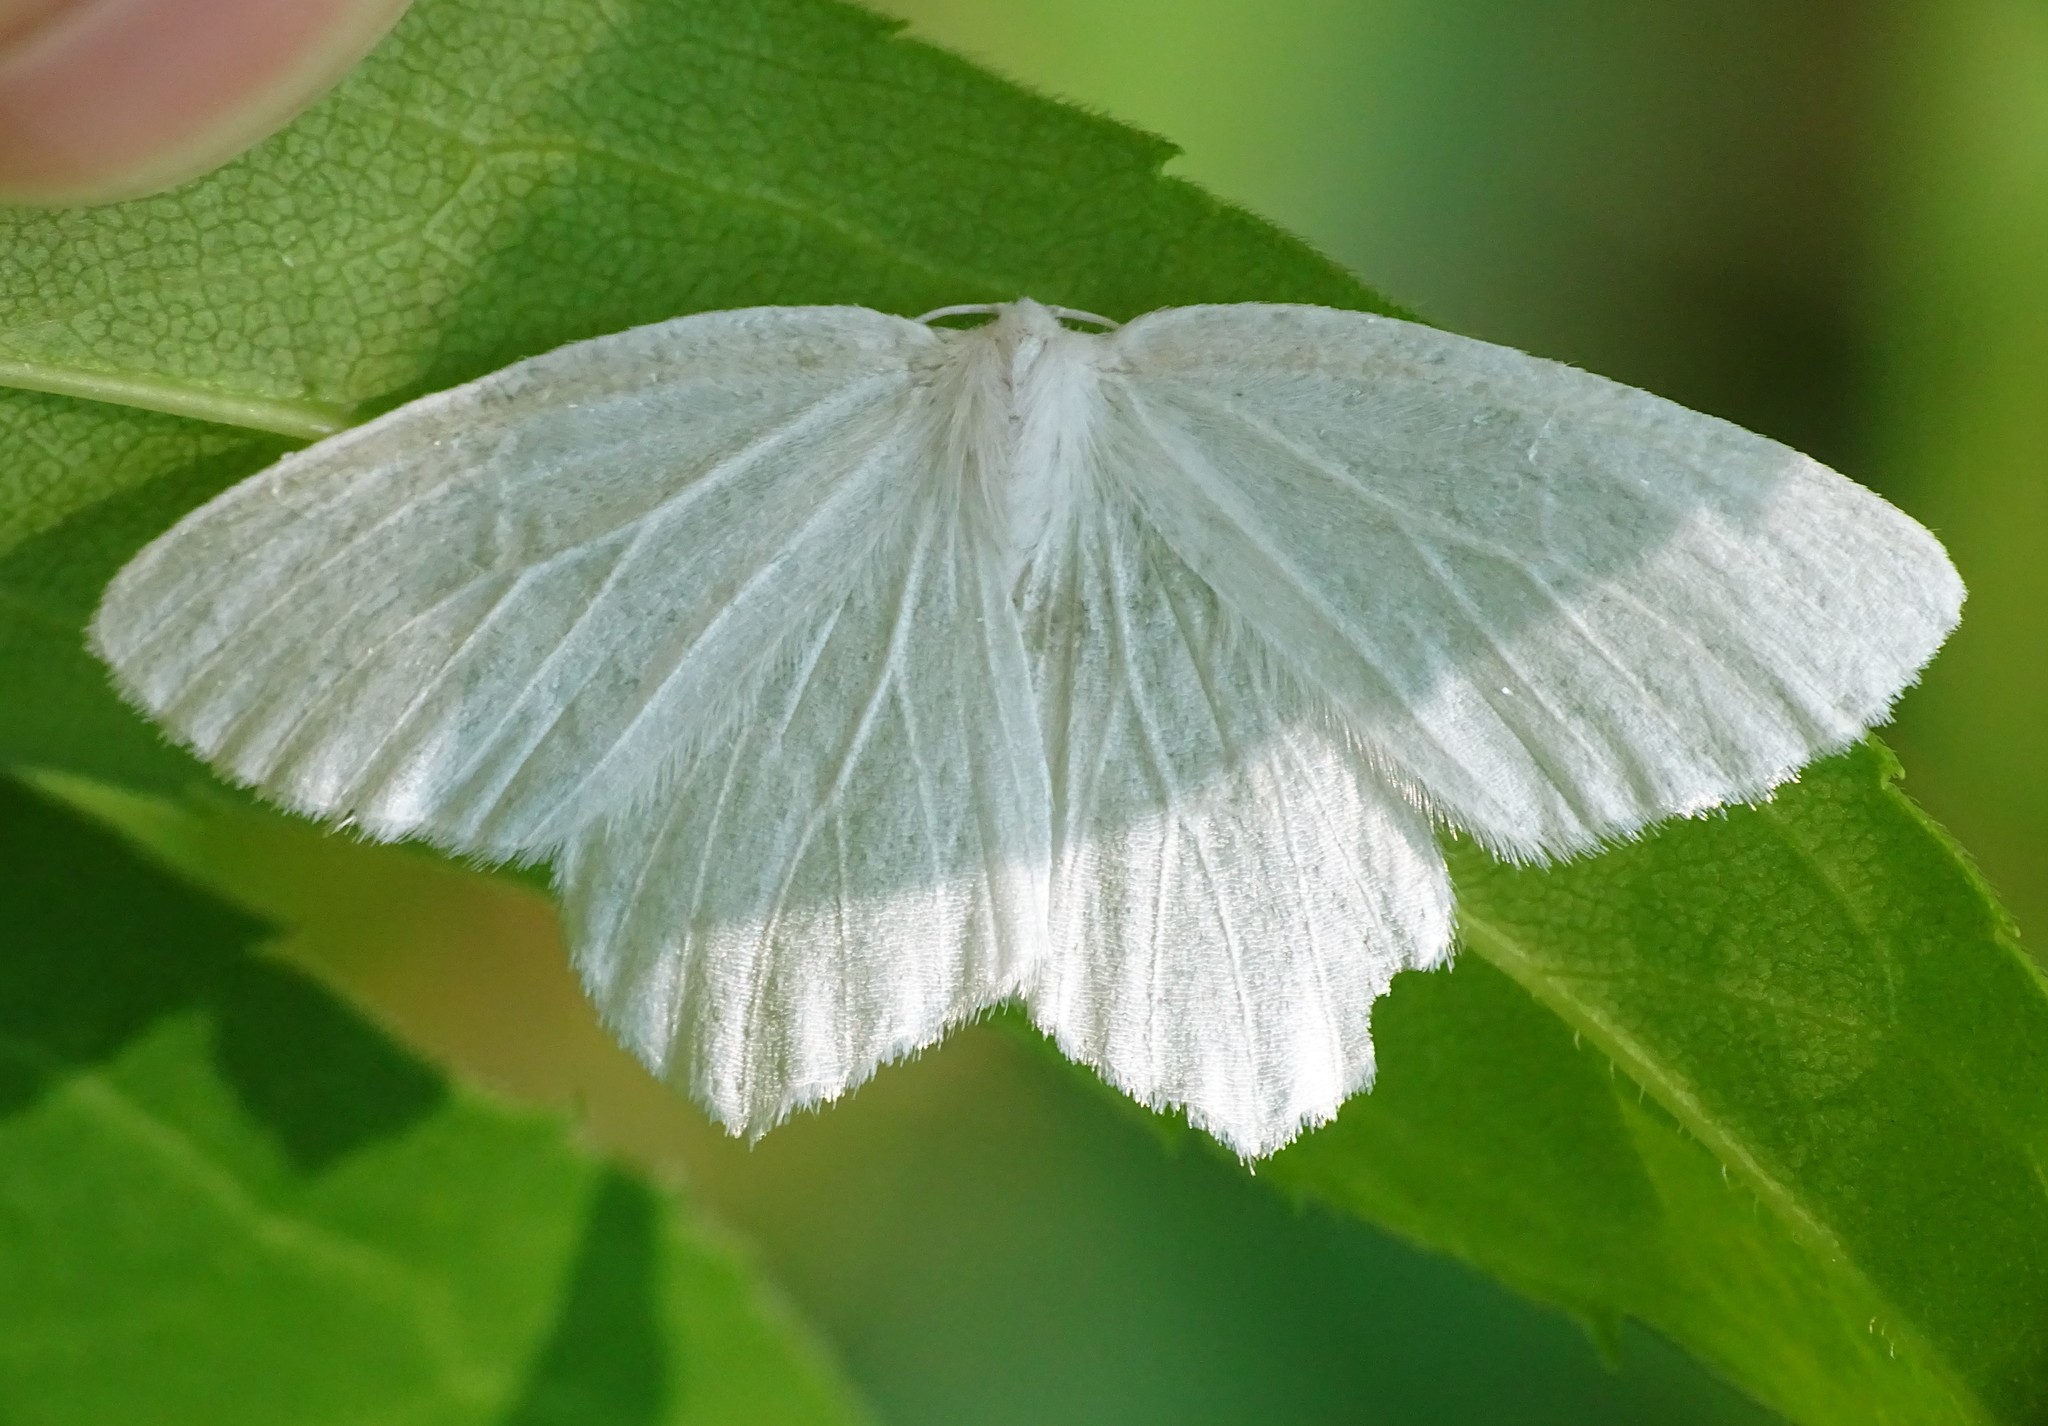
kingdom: Animalia
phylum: Arthropoda
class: Insecta
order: Lepidoptera
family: Geometridae
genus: Eugonobapta
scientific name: Eugonobapta nivosaria
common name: Snowy geometer
